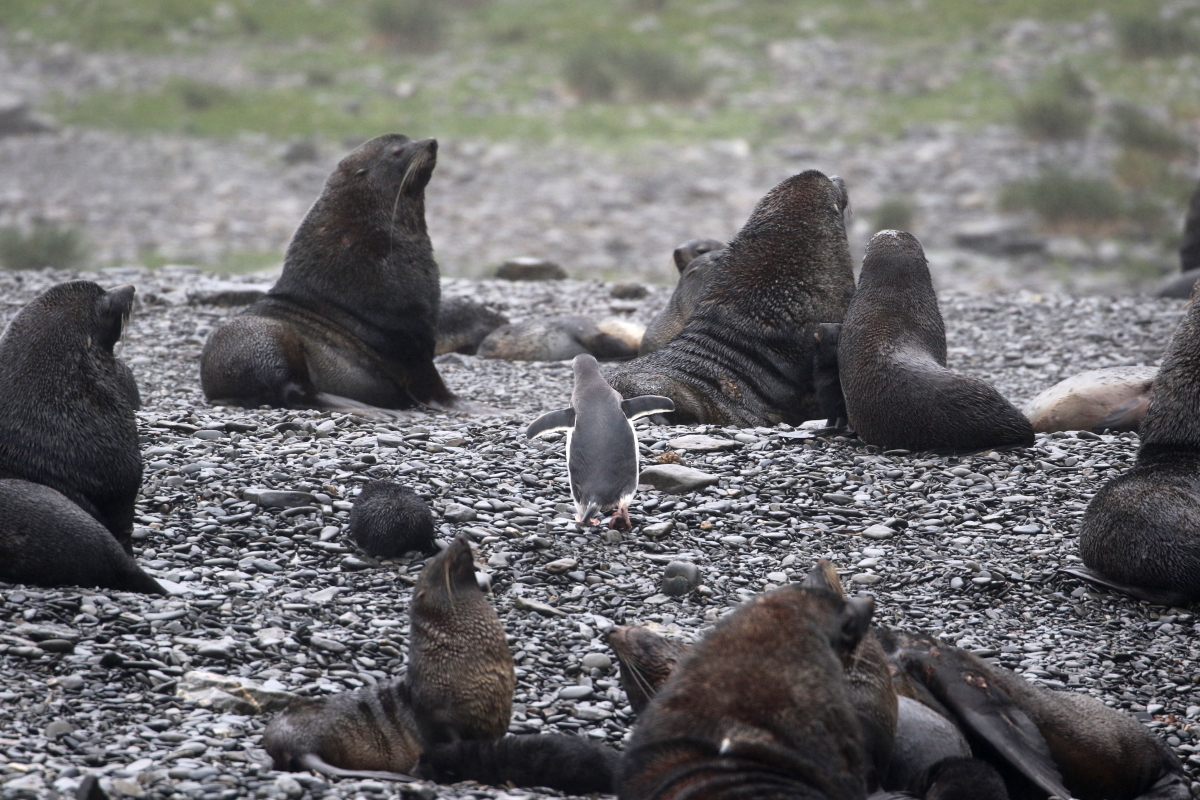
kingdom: Animalia
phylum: Chordata
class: Aves
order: Sphenisciformes
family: Spheniscidae
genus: Pygoscelis
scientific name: Pygoscelis papua
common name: Gentoo penguin
